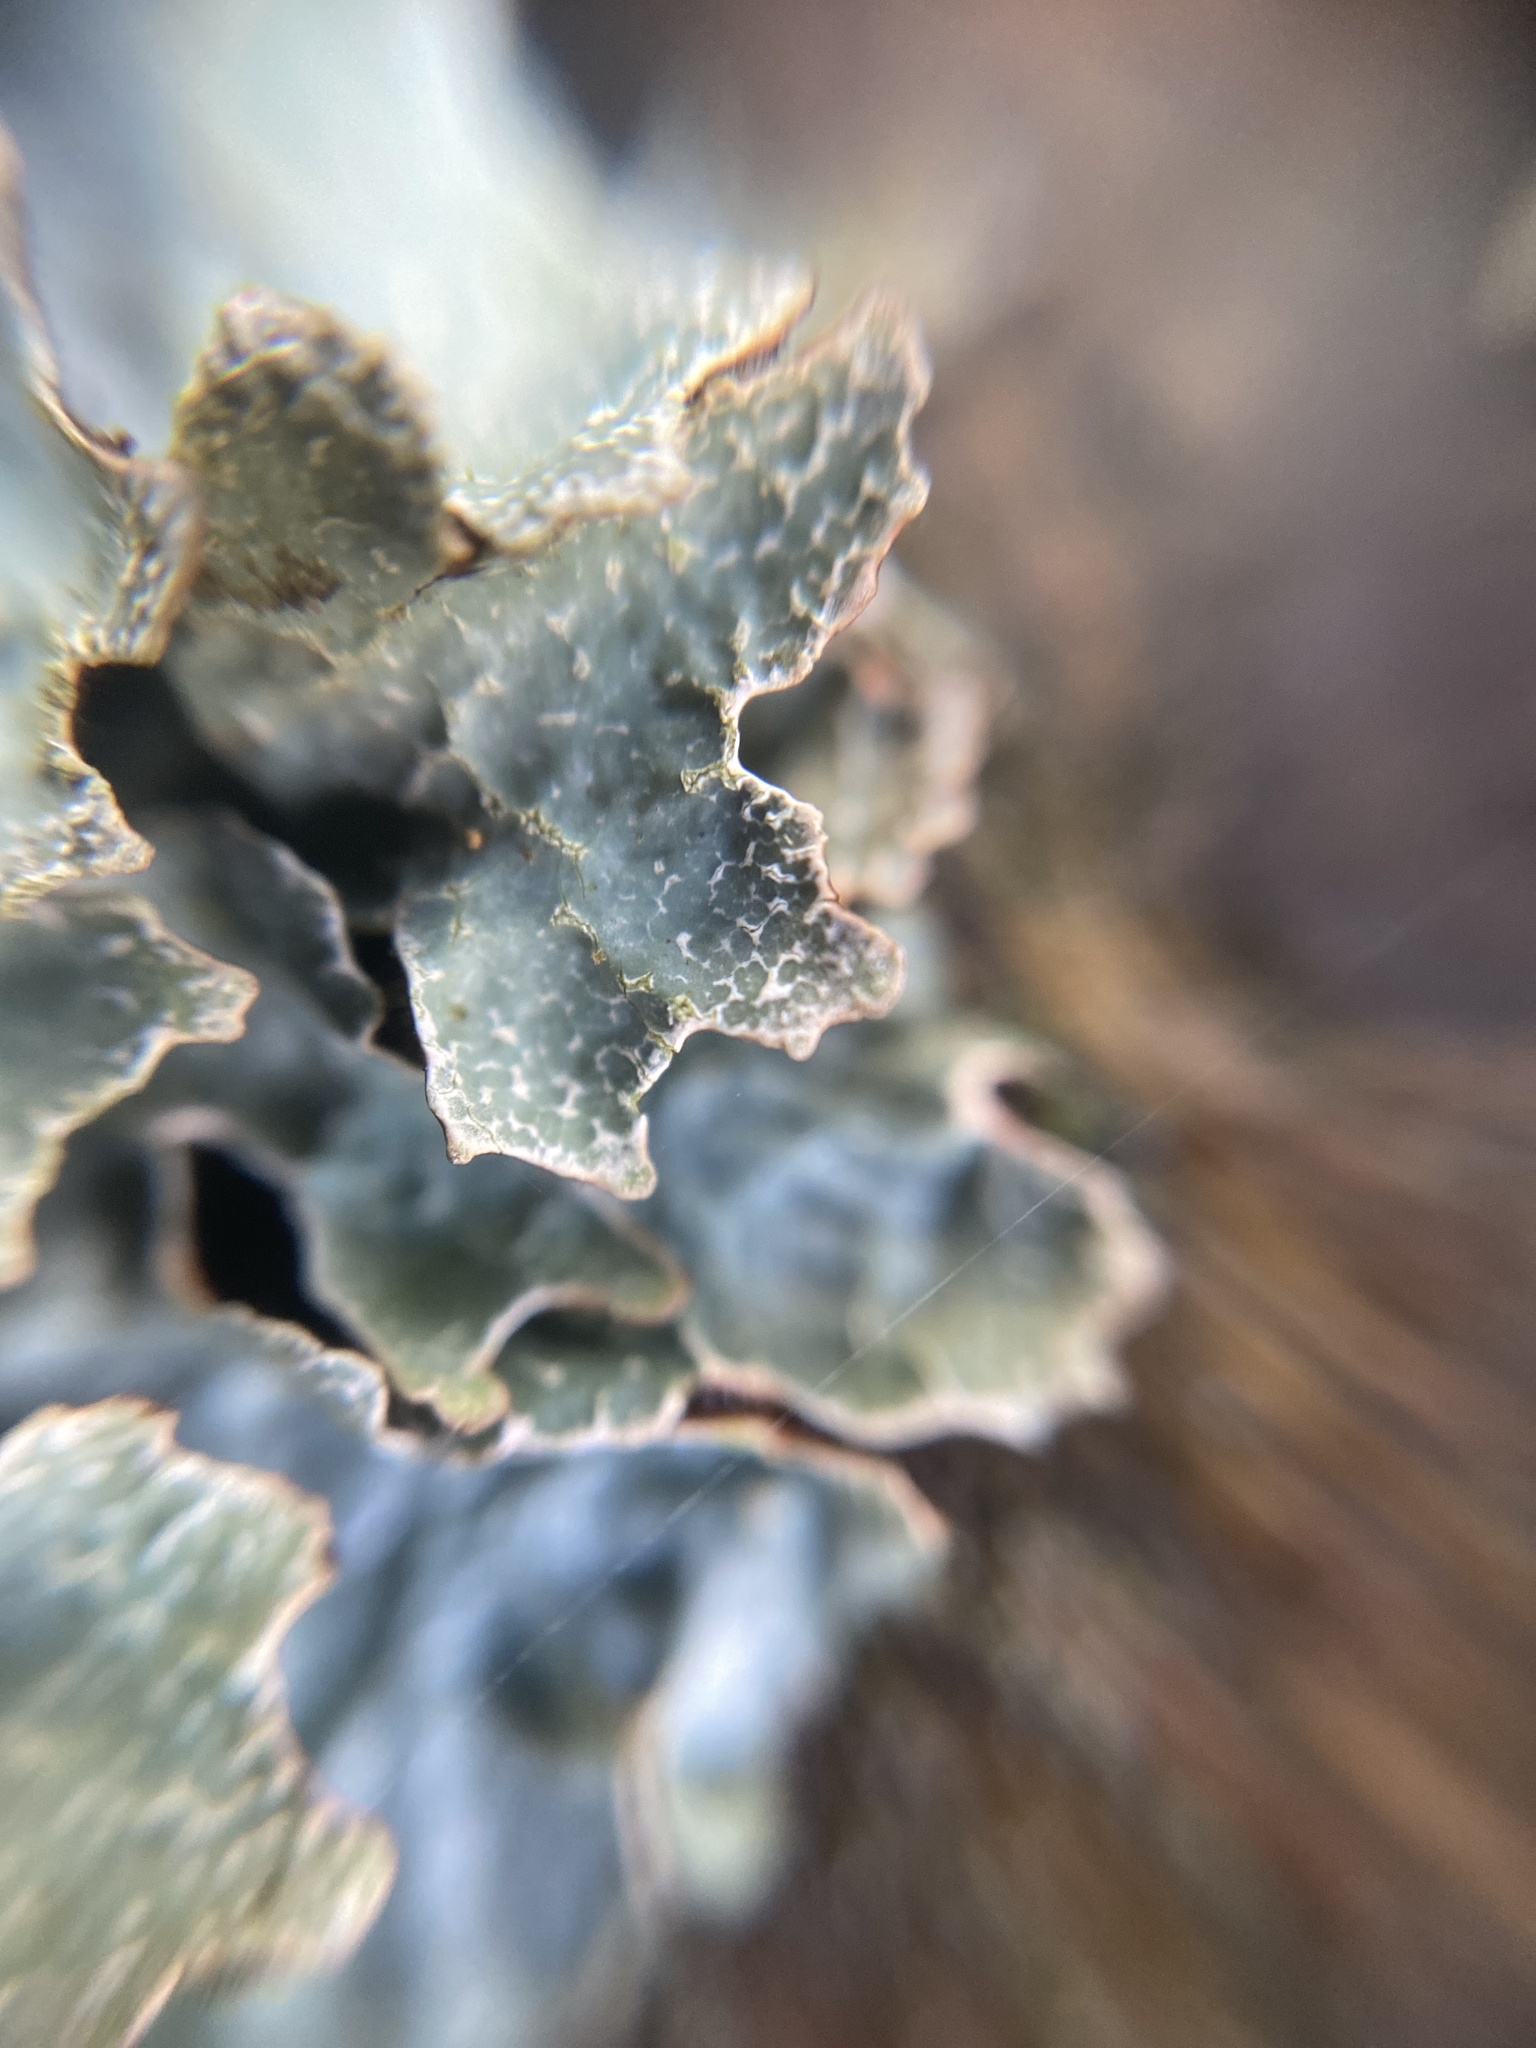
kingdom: Fungi
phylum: Ascomycota
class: Lecanoromycetes
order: Lecanorales
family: Parmeliaceae
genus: Parmelia
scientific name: Parmelia sulcata
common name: Netted shield lichen
